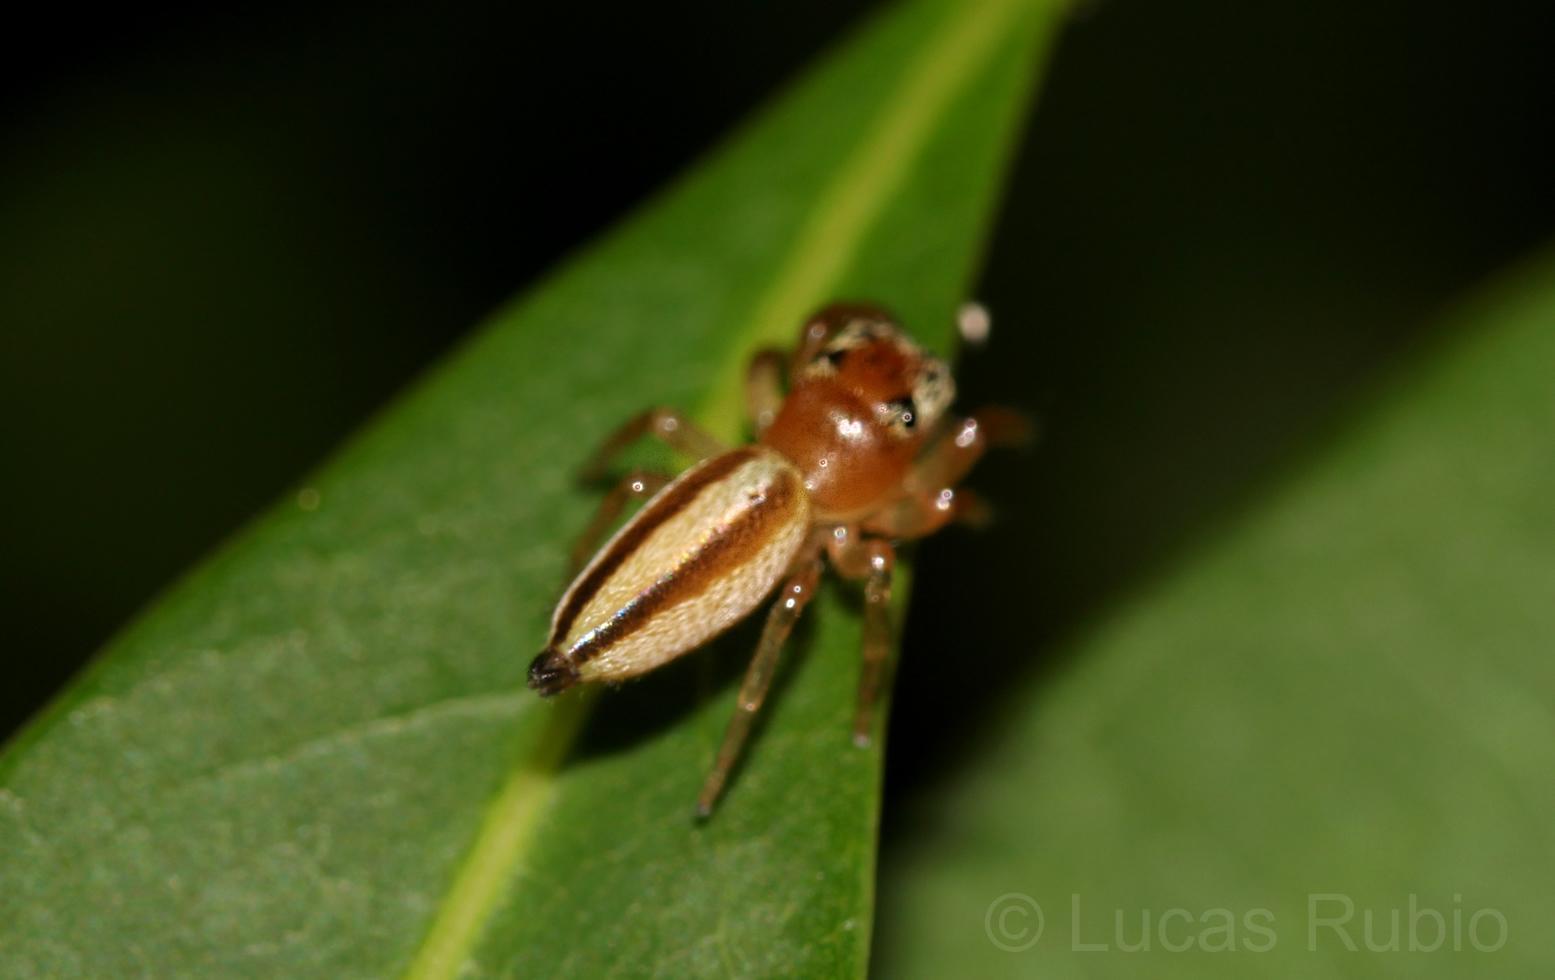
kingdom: Animalia
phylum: Arthropoda
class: Arachnida
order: Araneae
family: Salticidae
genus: Wedoquella
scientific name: Wedoquella macrothecata
